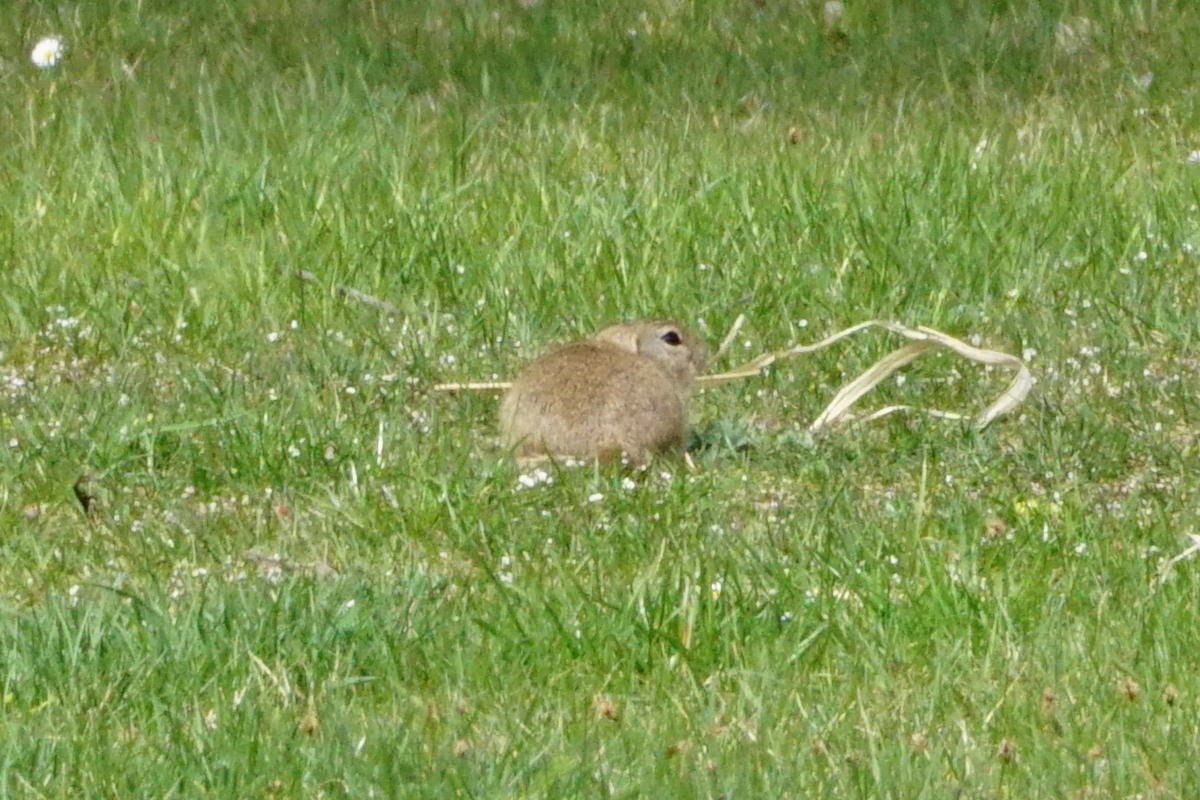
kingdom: Animalia
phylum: Chordata
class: Mammalia
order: Rodentia
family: Sciuridae
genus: Spermophilus
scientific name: Spermophilus citellus
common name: European ground squirrel
